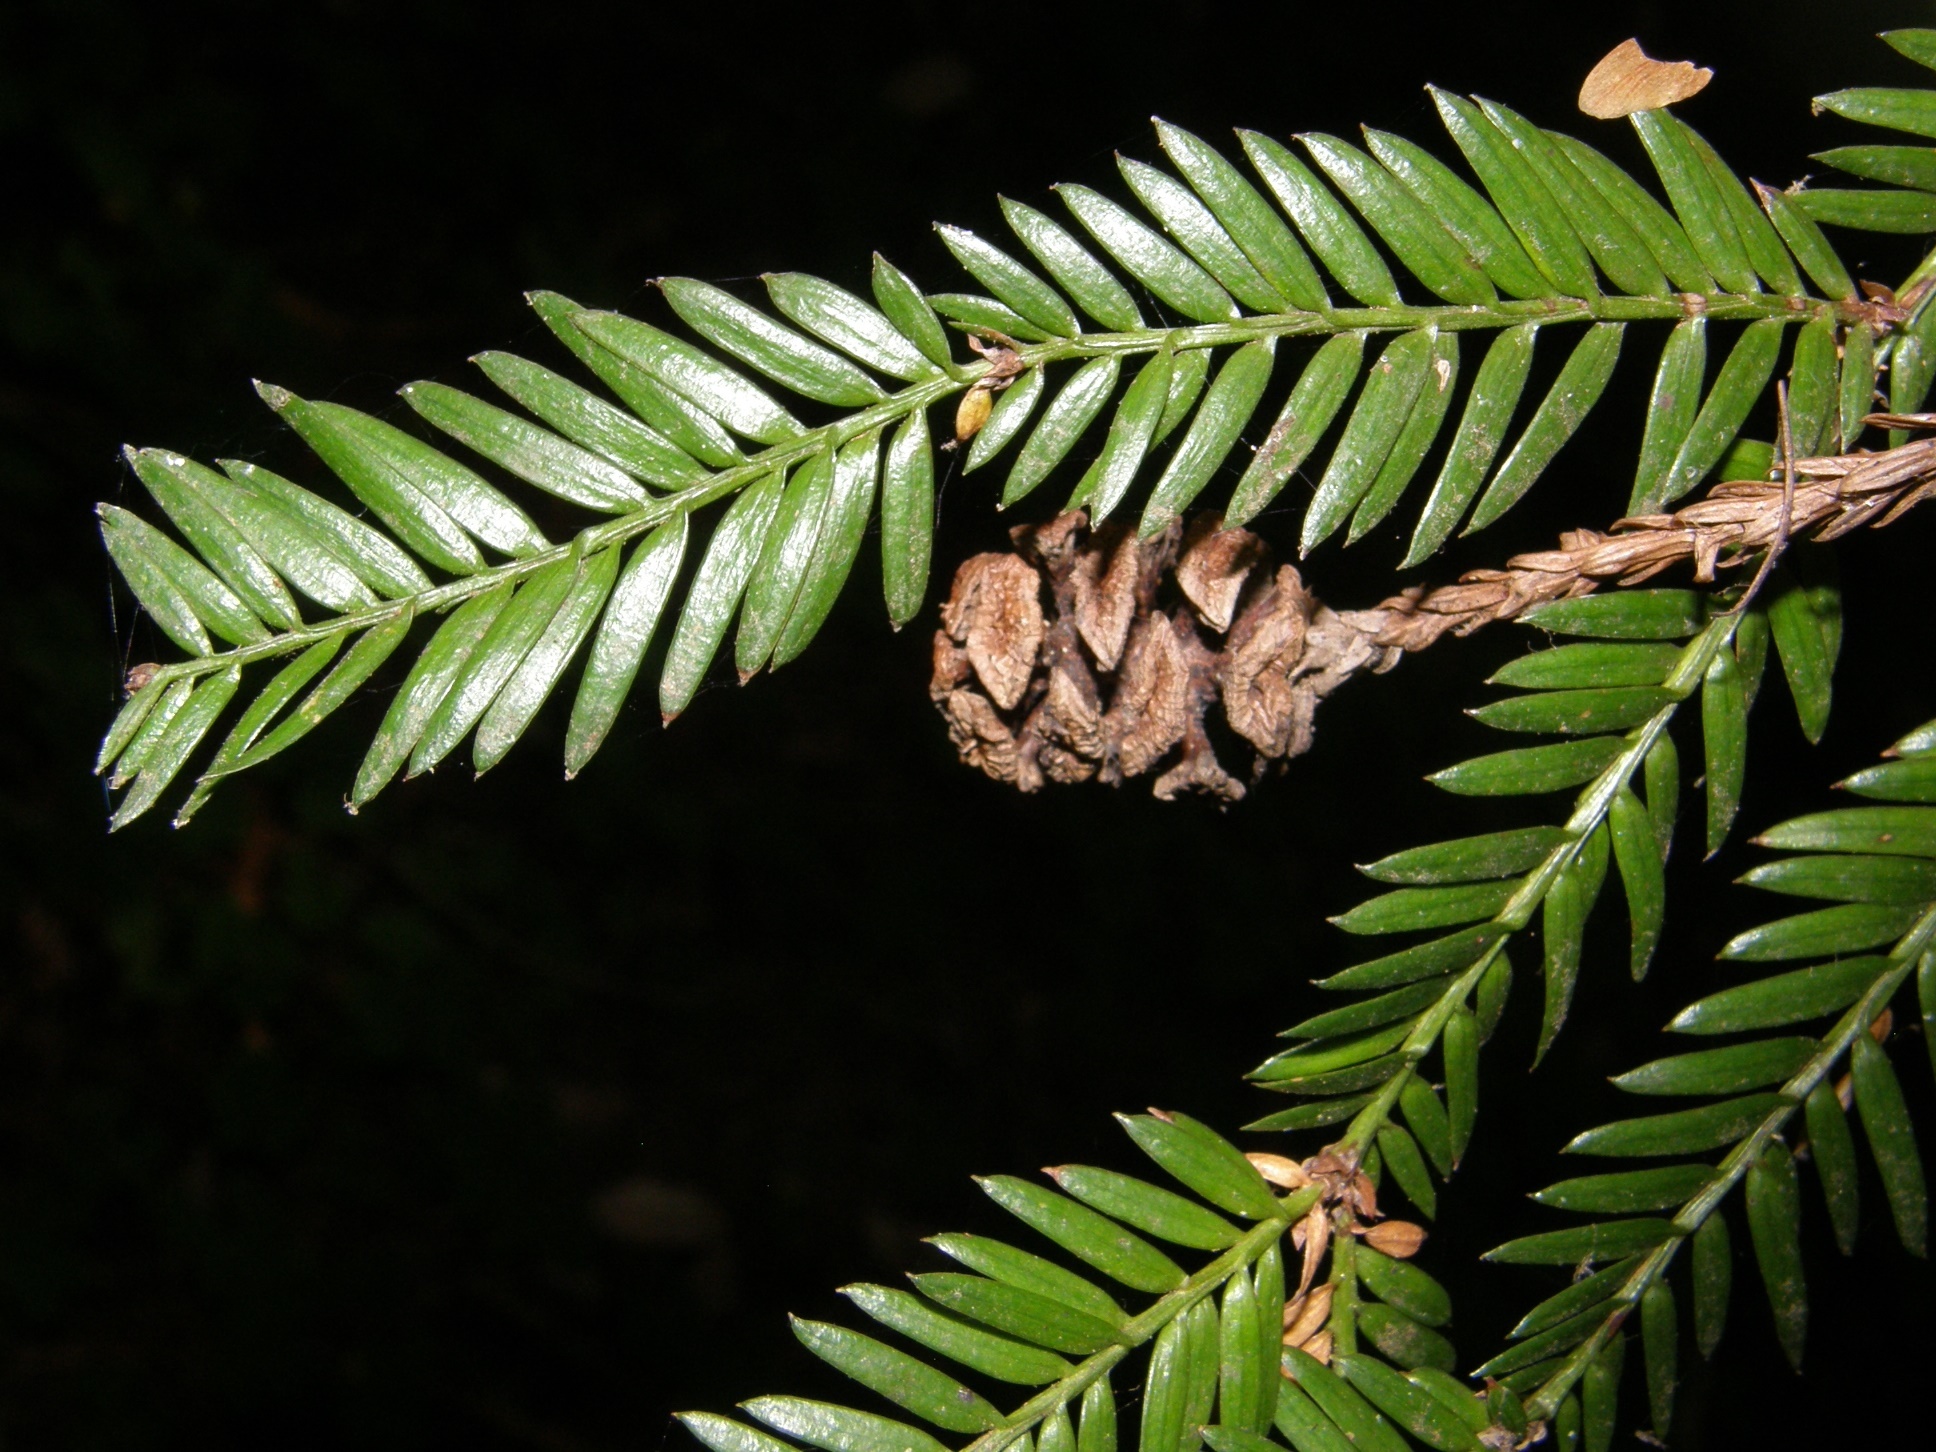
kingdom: Plantae
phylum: Tracheophyta
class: Pinopsida
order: Pinales
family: Cupressaceae
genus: Sequoia
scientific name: Sequoia sempervirens
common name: Coast redwood
